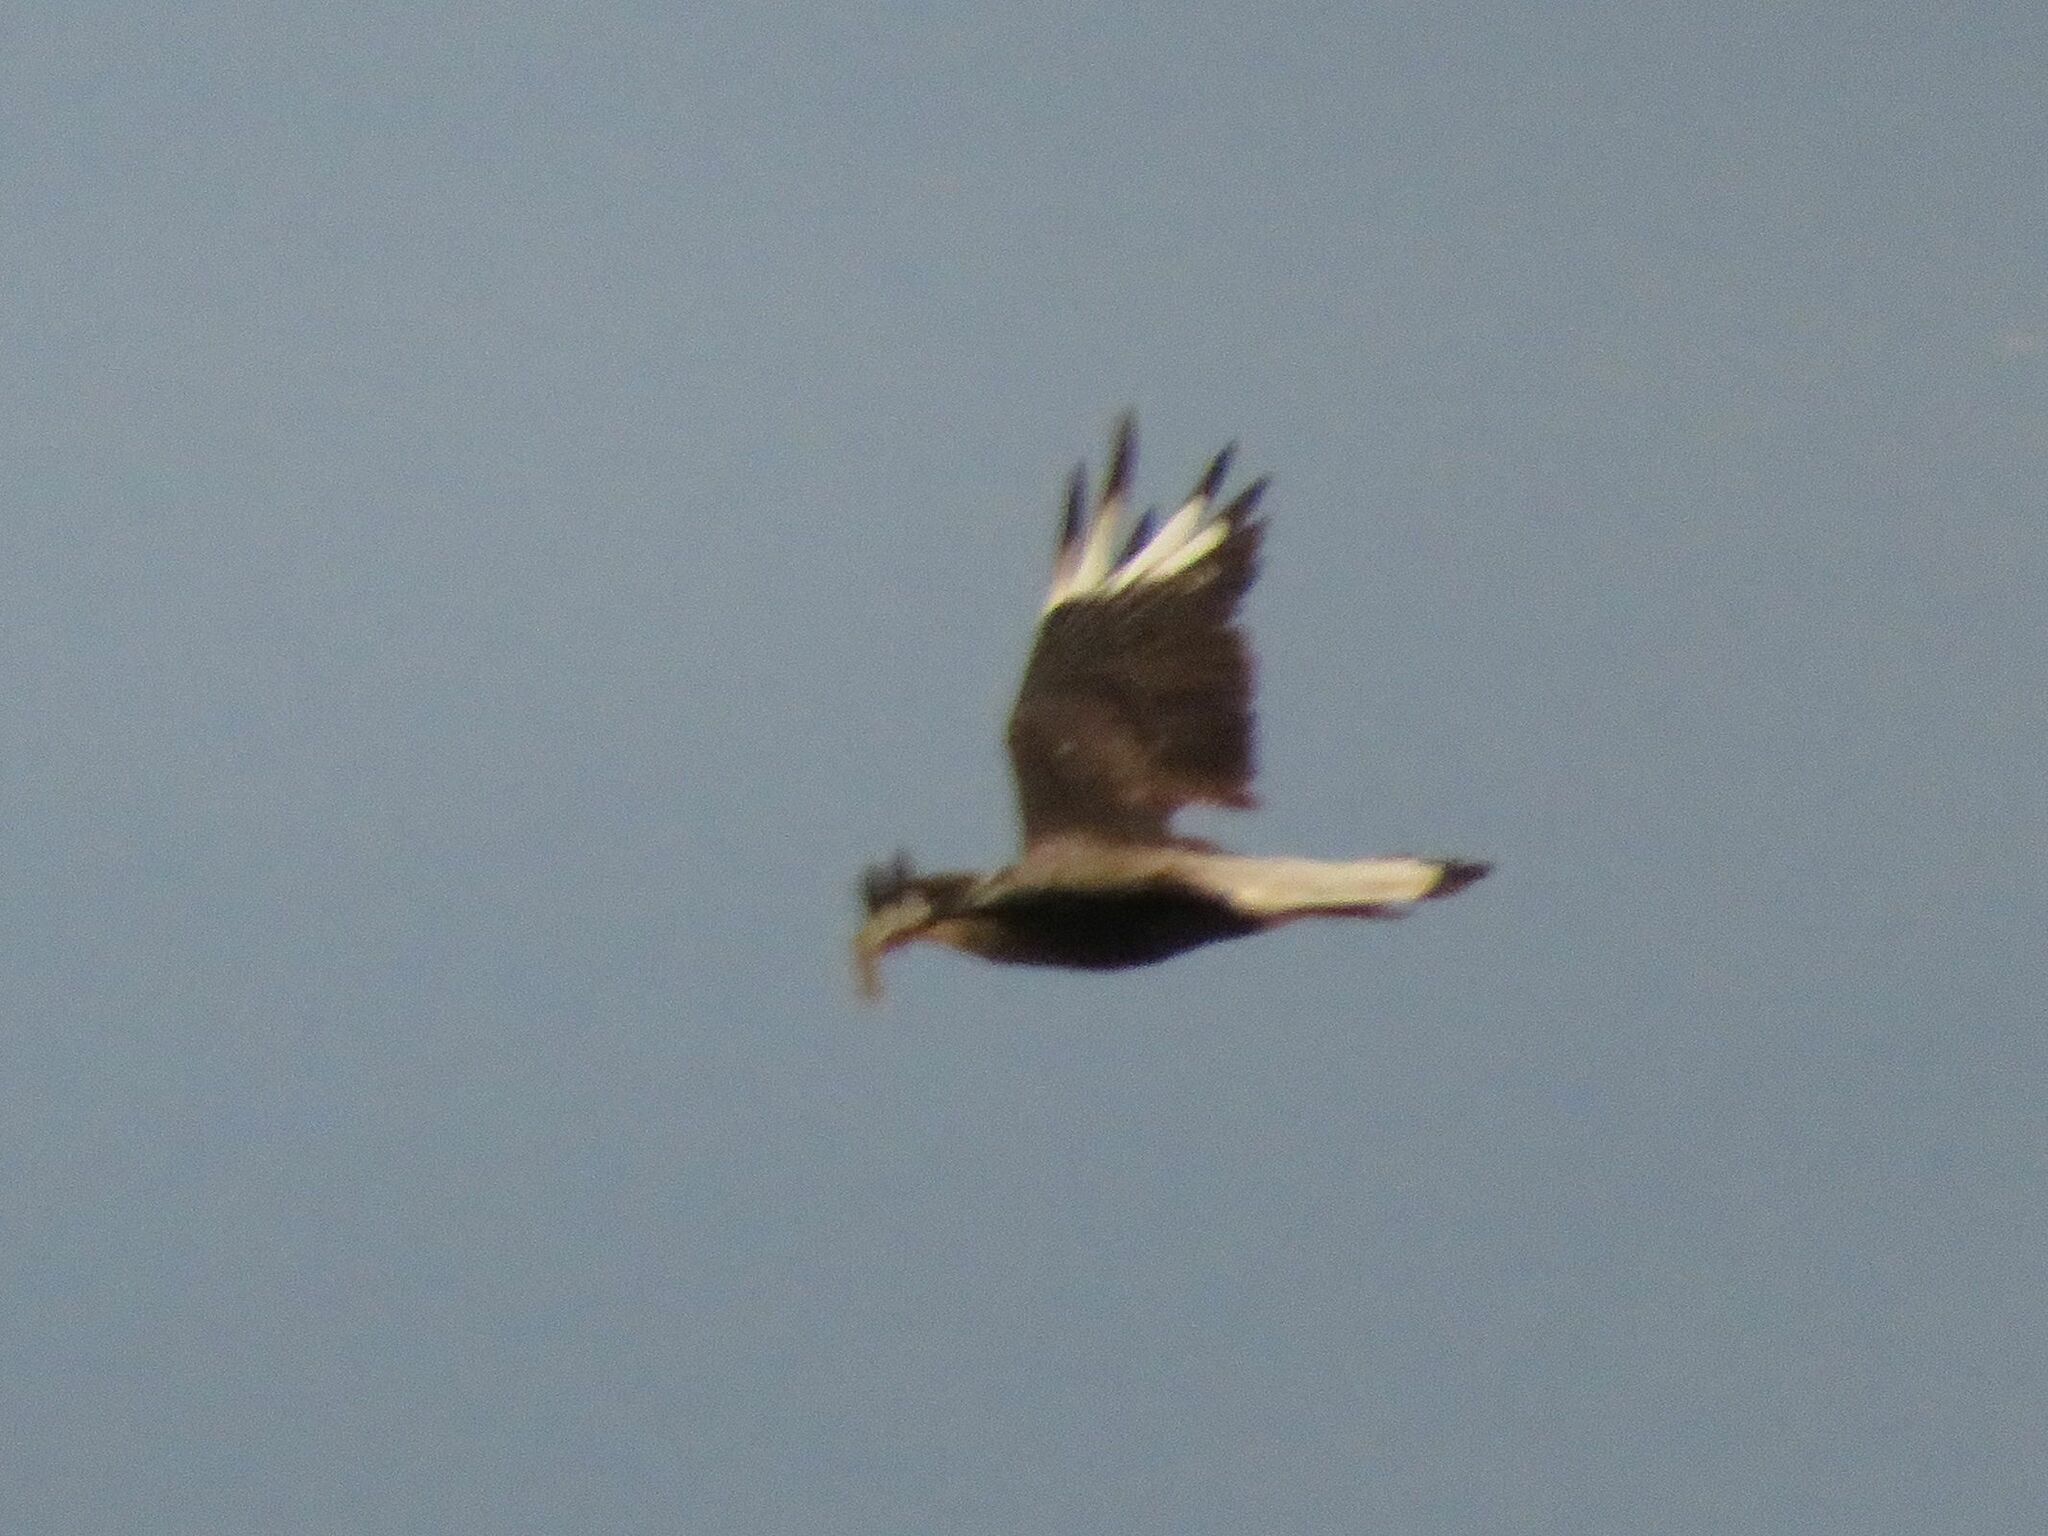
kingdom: Animalia
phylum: Chordata
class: Aves
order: Falconiformes
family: Falconidae
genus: Caracara
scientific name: Caracara plancus
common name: Southern caracara
